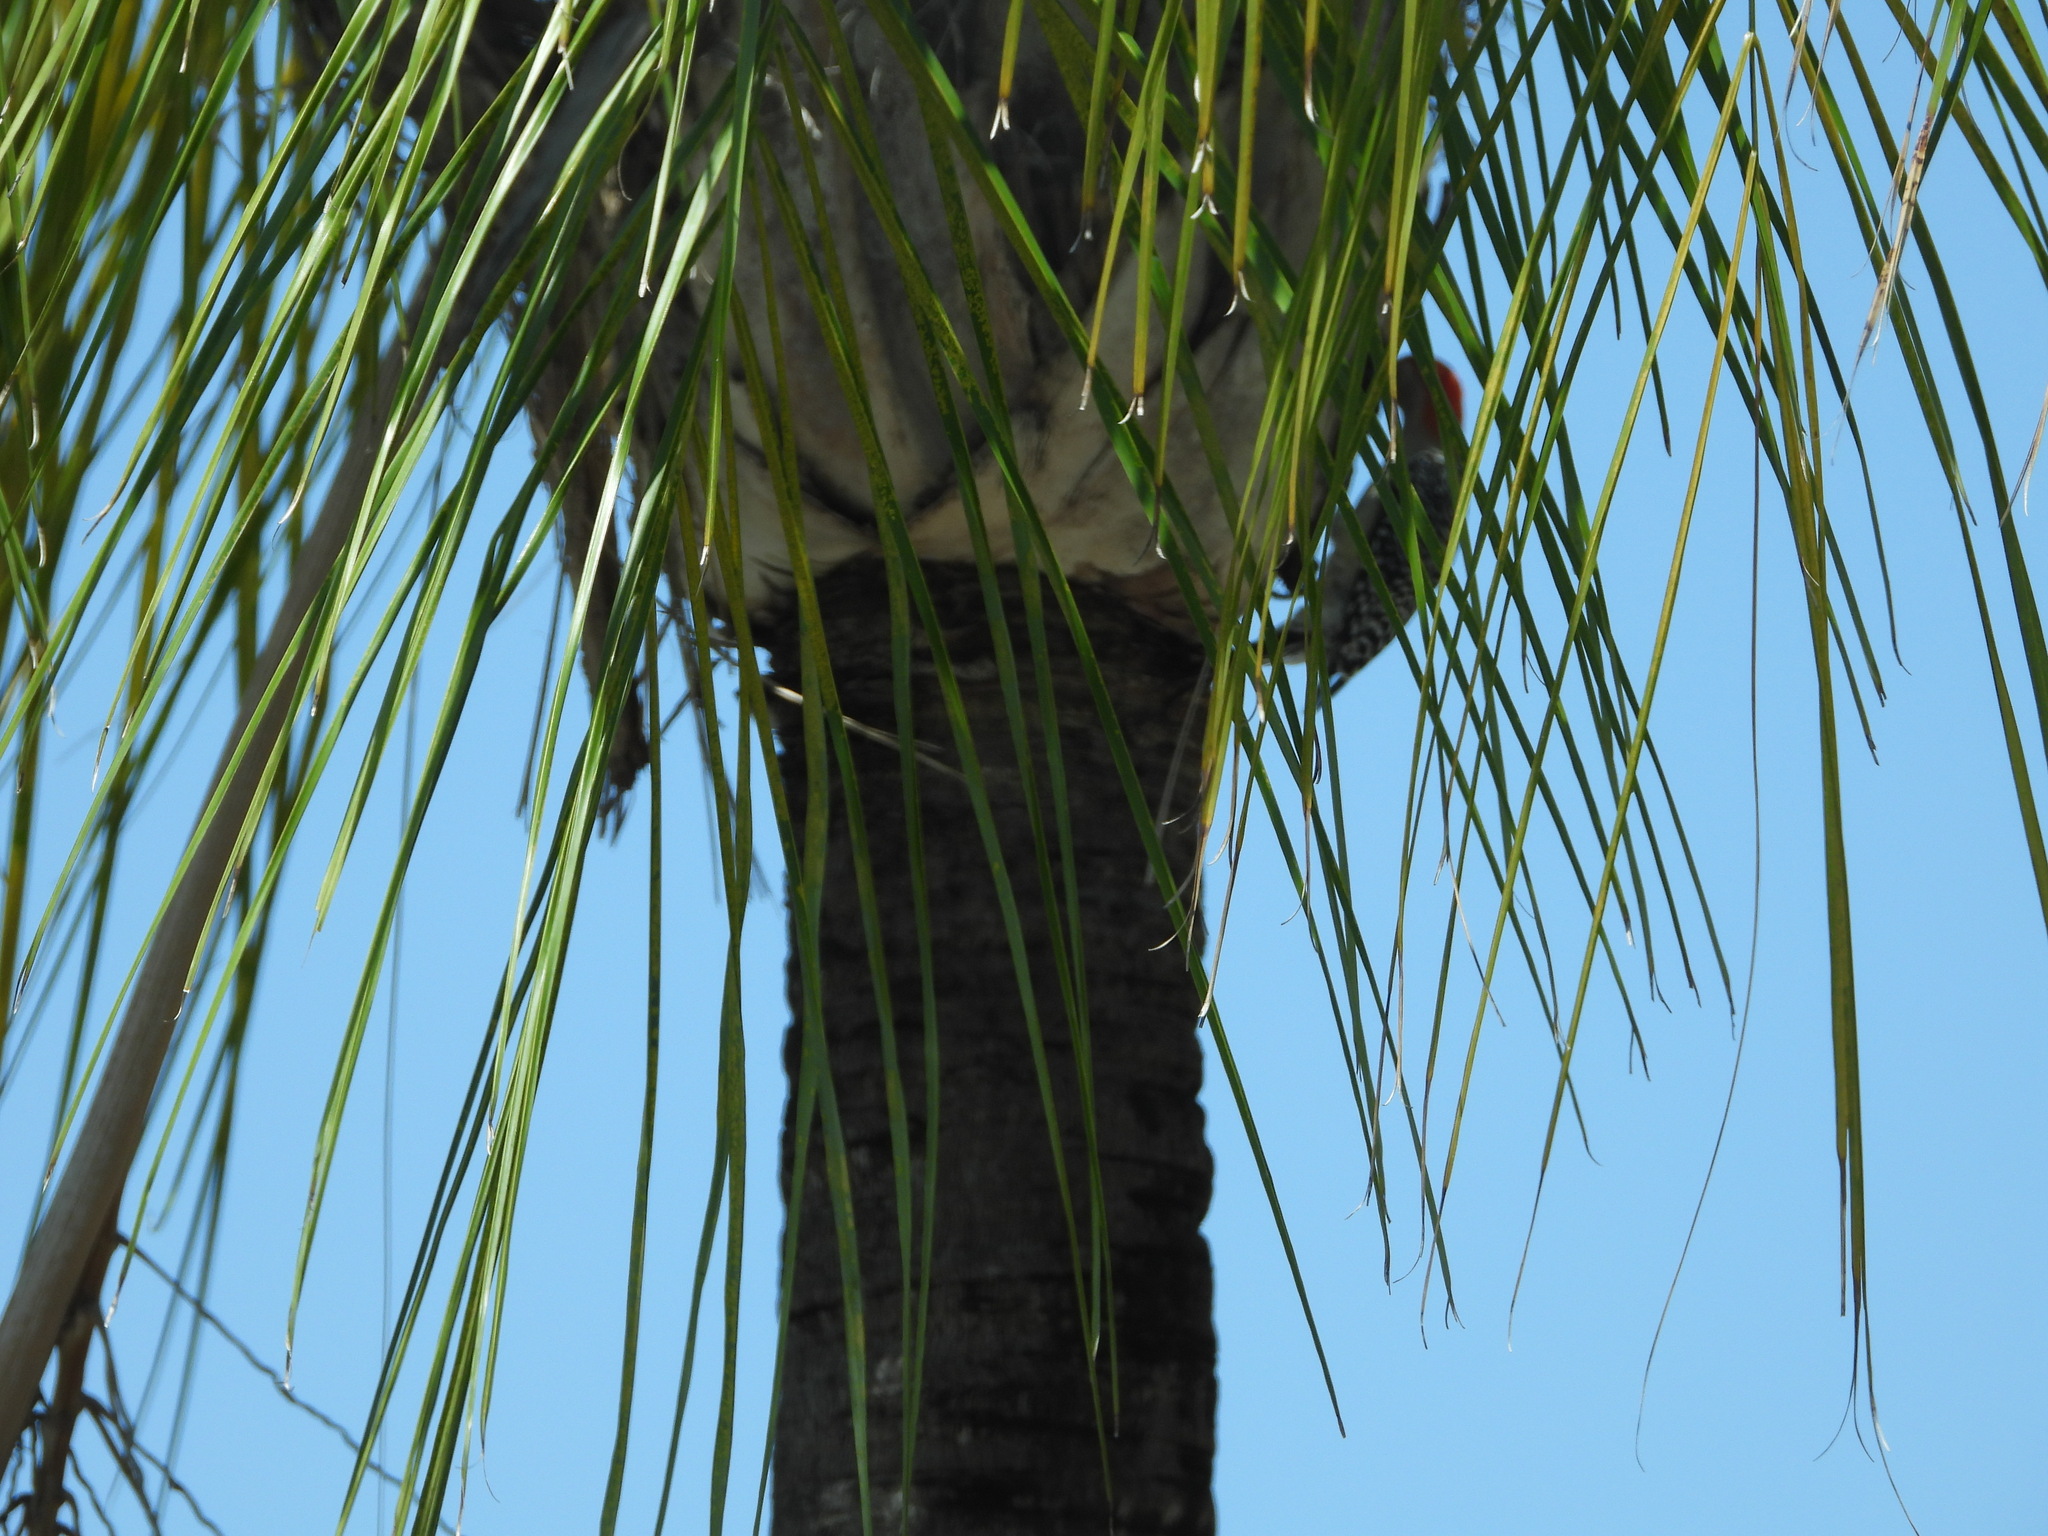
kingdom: Animalia
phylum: Chordata
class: Aves
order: Piciformes
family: Picidae
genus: Melanerpes
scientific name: Melanerpes carolinus
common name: Red-bellied woodpecker
